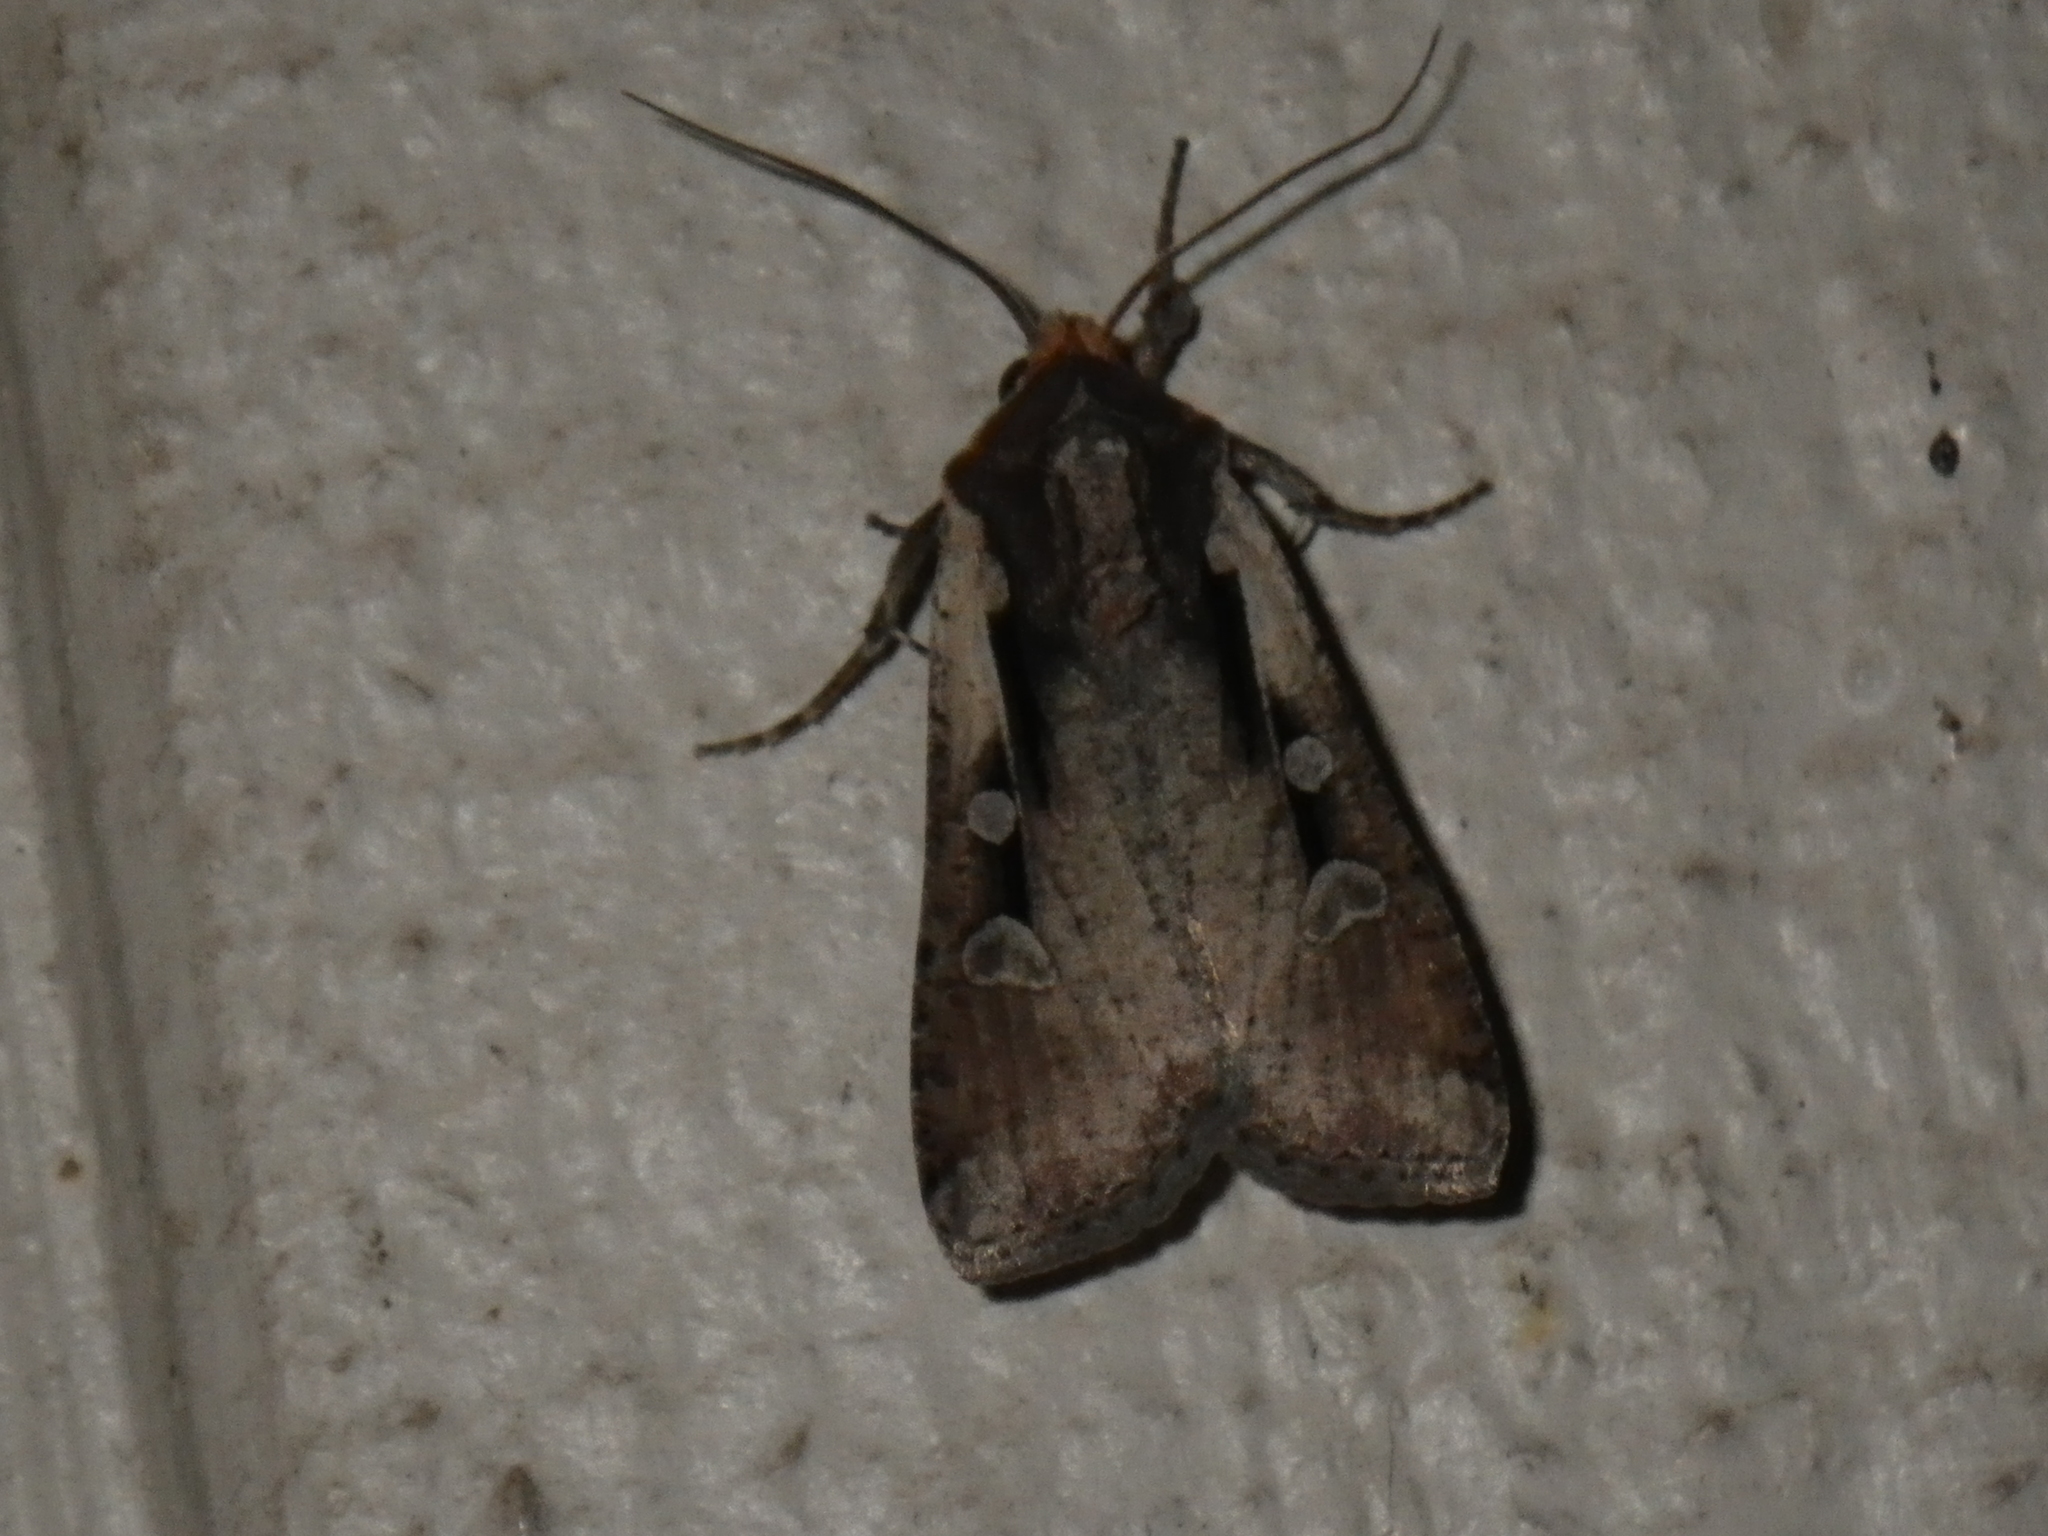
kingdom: Animalia
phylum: Arthropoda
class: Insecta
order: Lepidoptera
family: Noctuidae
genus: Hemieuxoa
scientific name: Hemieuxoa rudens
